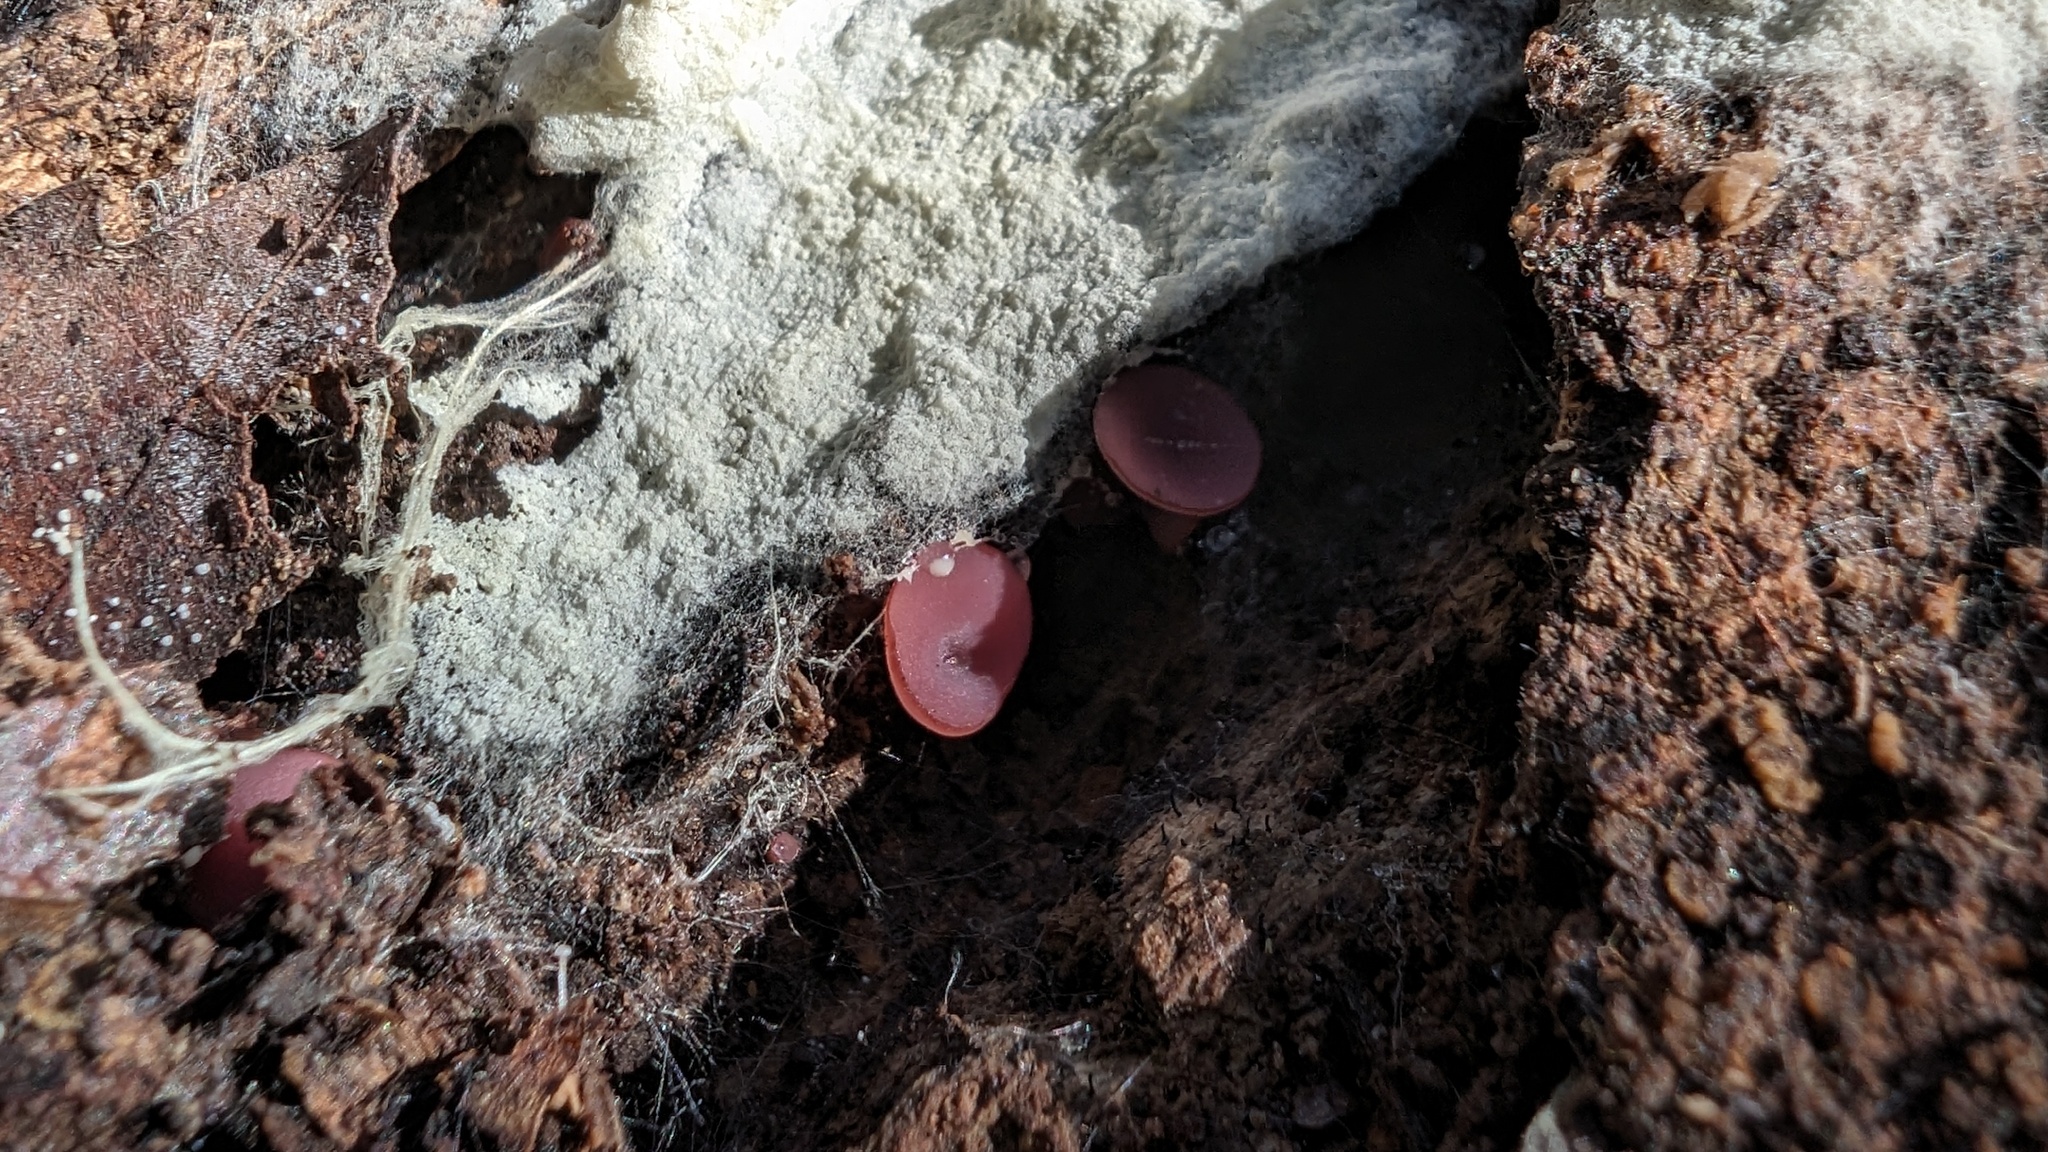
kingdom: Fungi
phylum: Ascomycota
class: Leotiomycetes
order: Helotiales
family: Gelatinodiscaceae
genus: Ascocoryne
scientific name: Ascocoryne cylichnium
